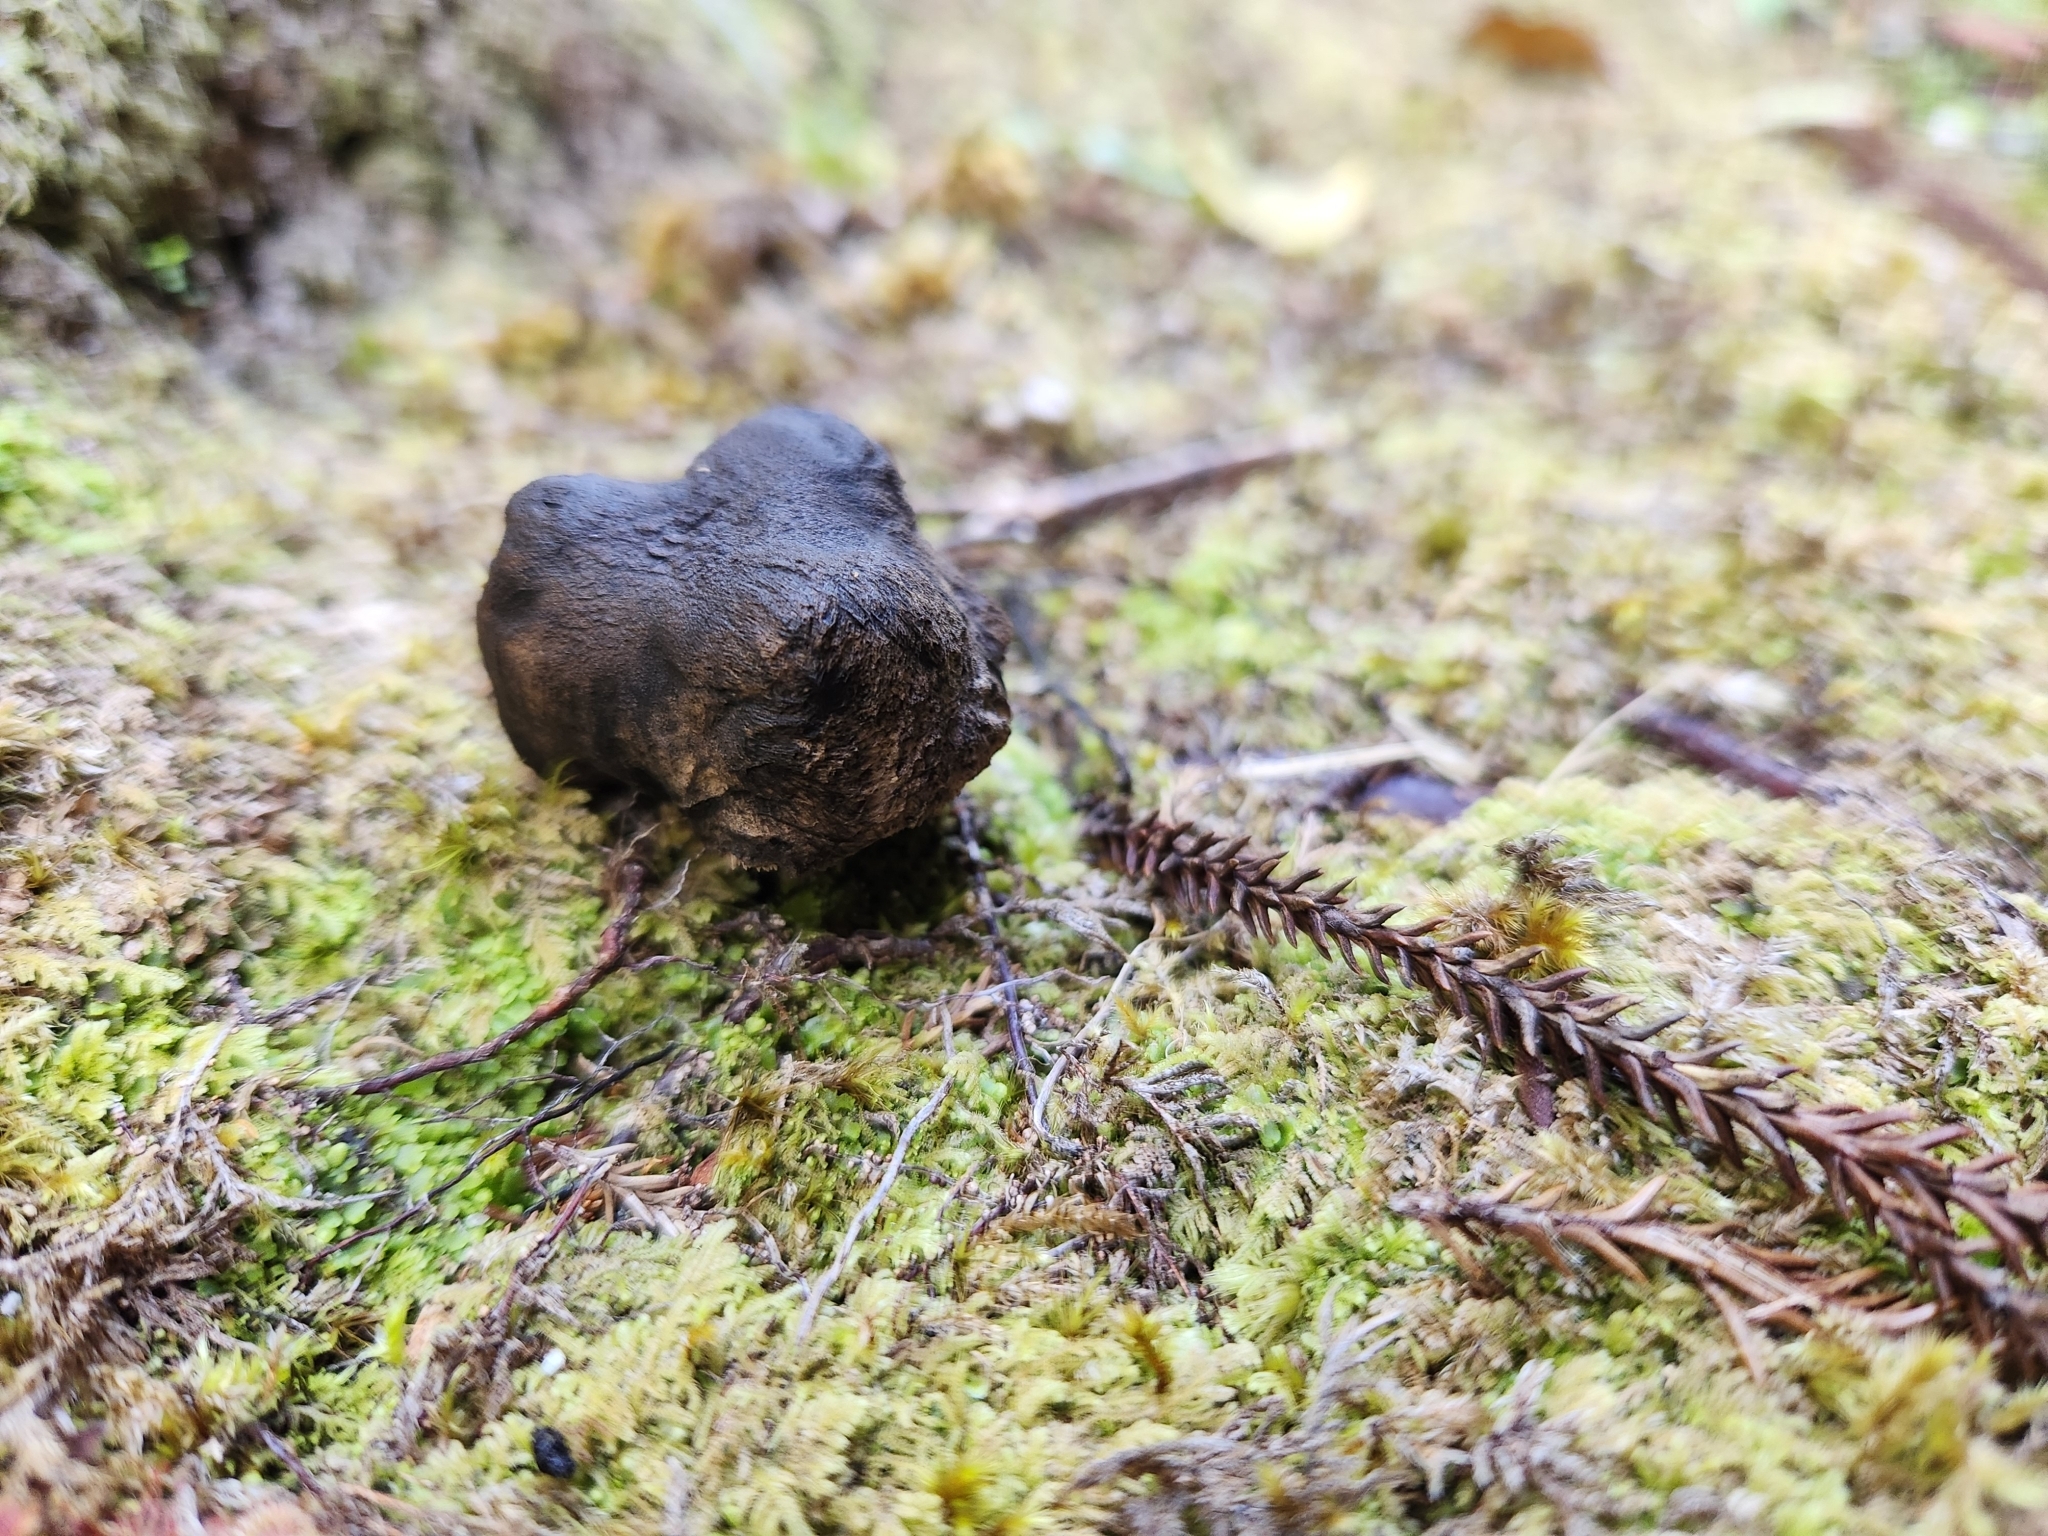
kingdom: Fungi
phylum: Basidiomycota
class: Agaricomycetes
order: Thelephorales
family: Bankeraceae
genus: Sarcodon
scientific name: Sarcodon carbonarius
